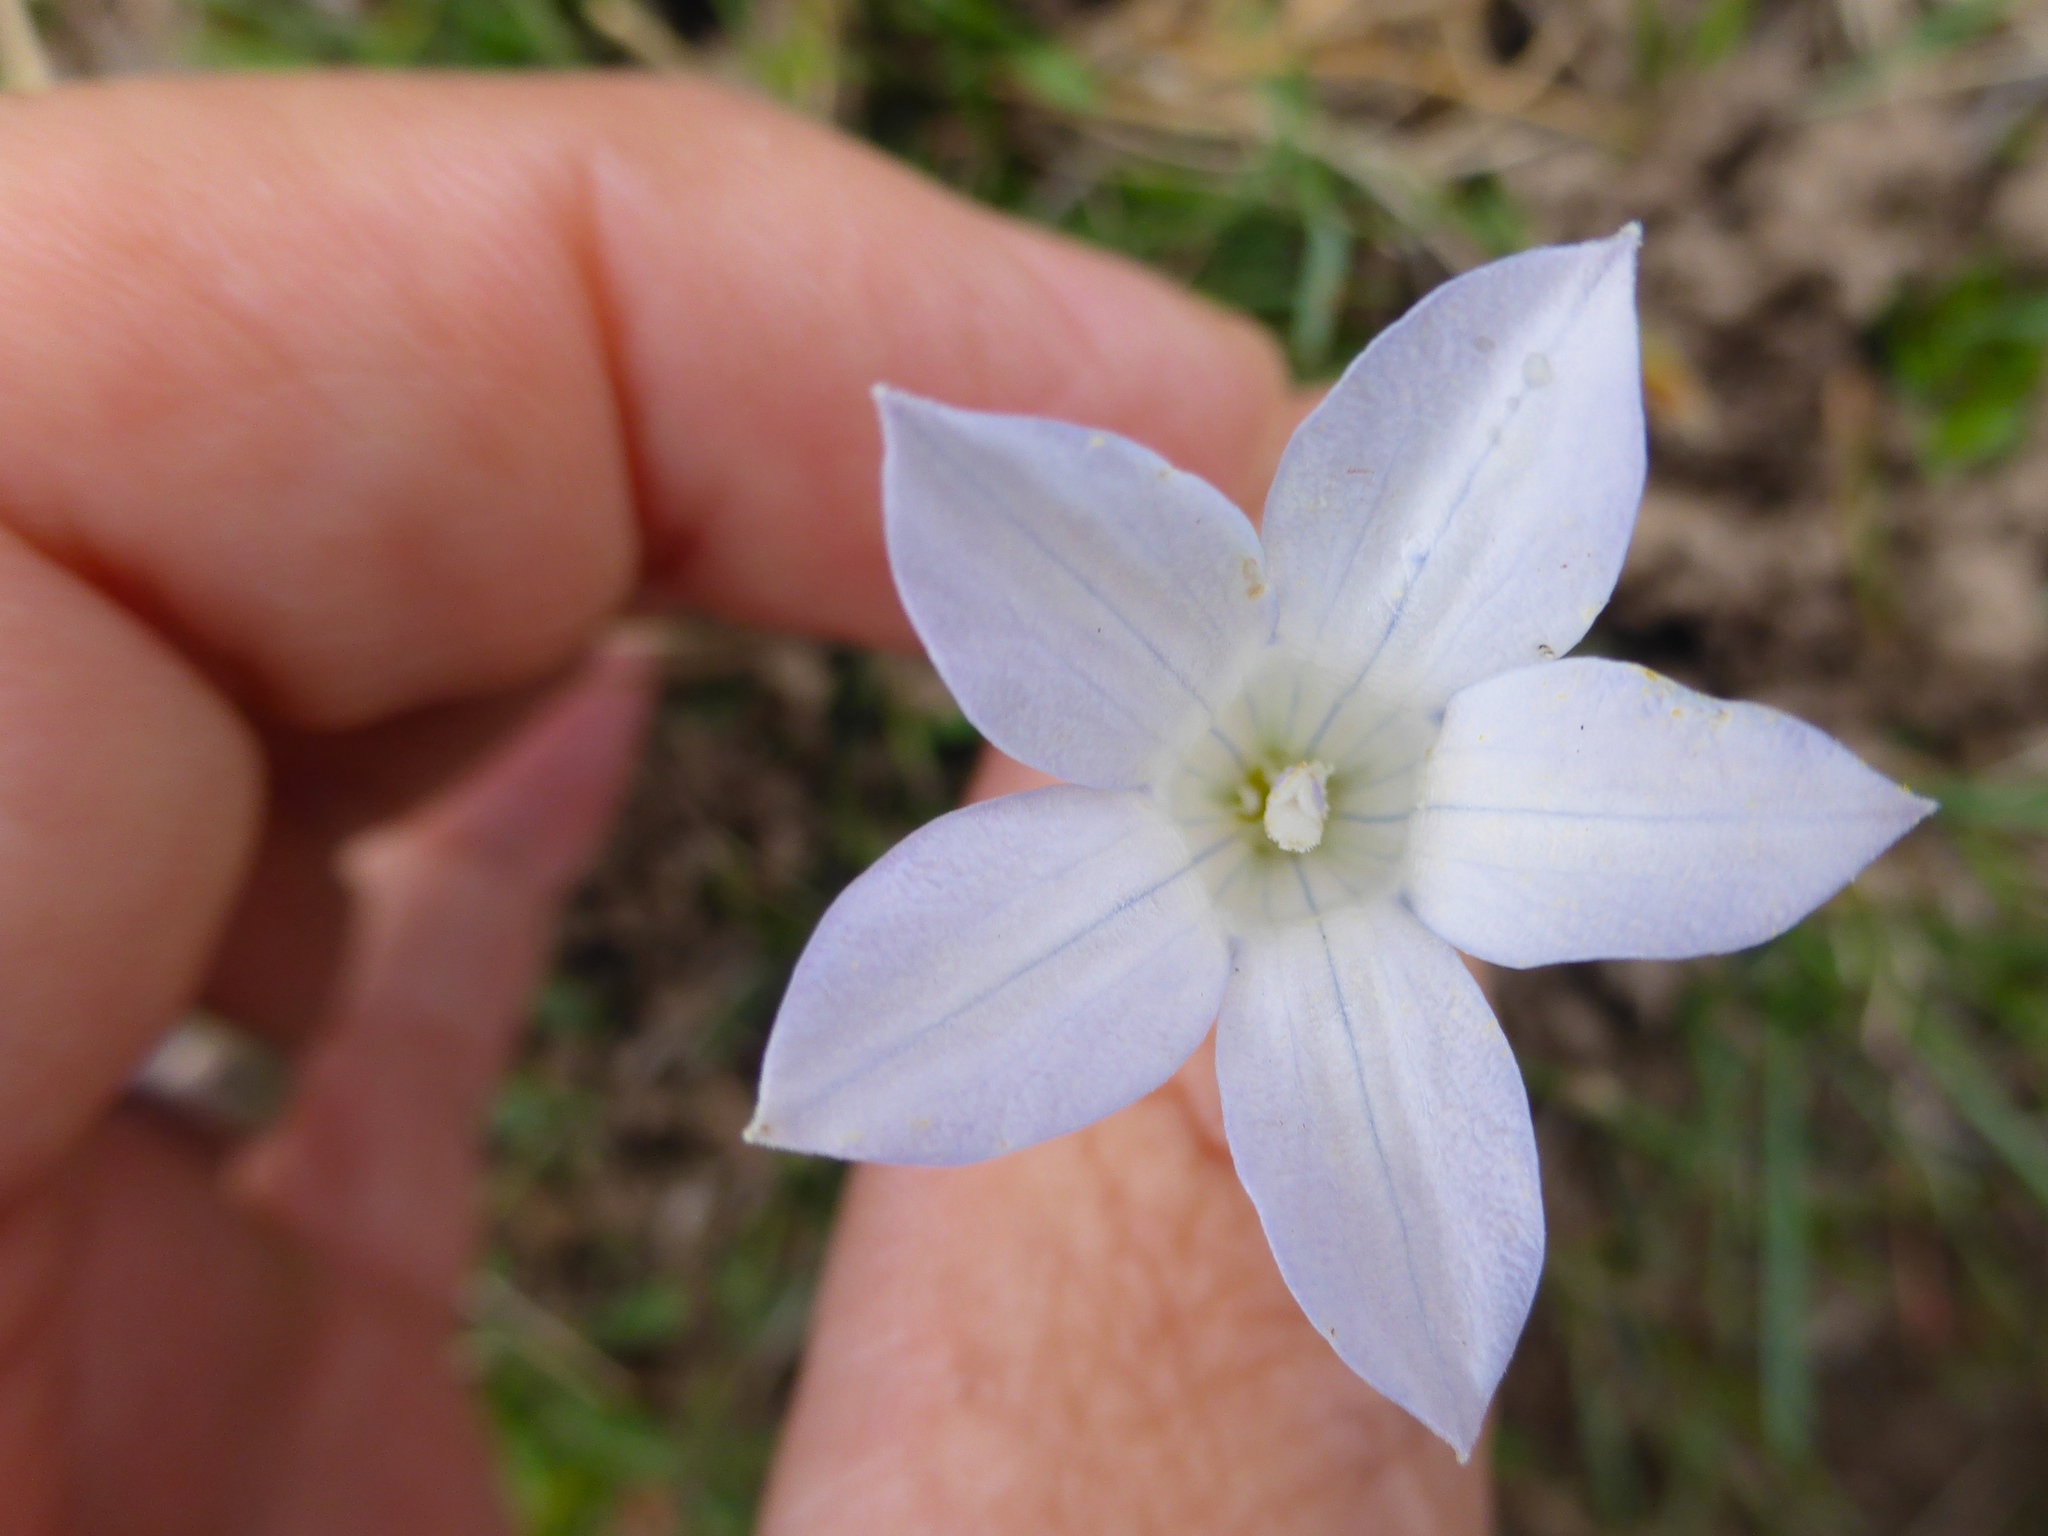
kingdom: Plantae
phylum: Tracheophyta
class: Magnoliopsida
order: Asterales
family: Campanulaceae
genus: Wahlenbergia
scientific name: Wahlenbergia albomarginata
